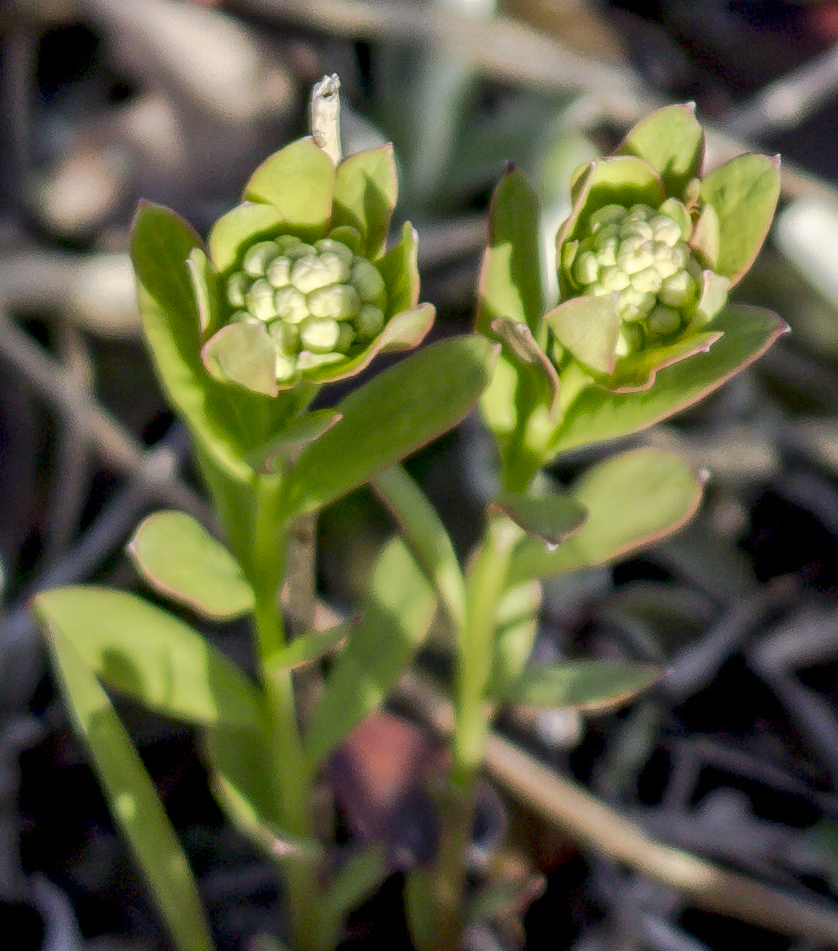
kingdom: Plantae
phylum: Tracheophyta
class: Magnoliopsida
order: Santalales
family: Comandraceae
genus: Comandra
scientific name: Comandra umbellata
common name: Bastard toadflax
